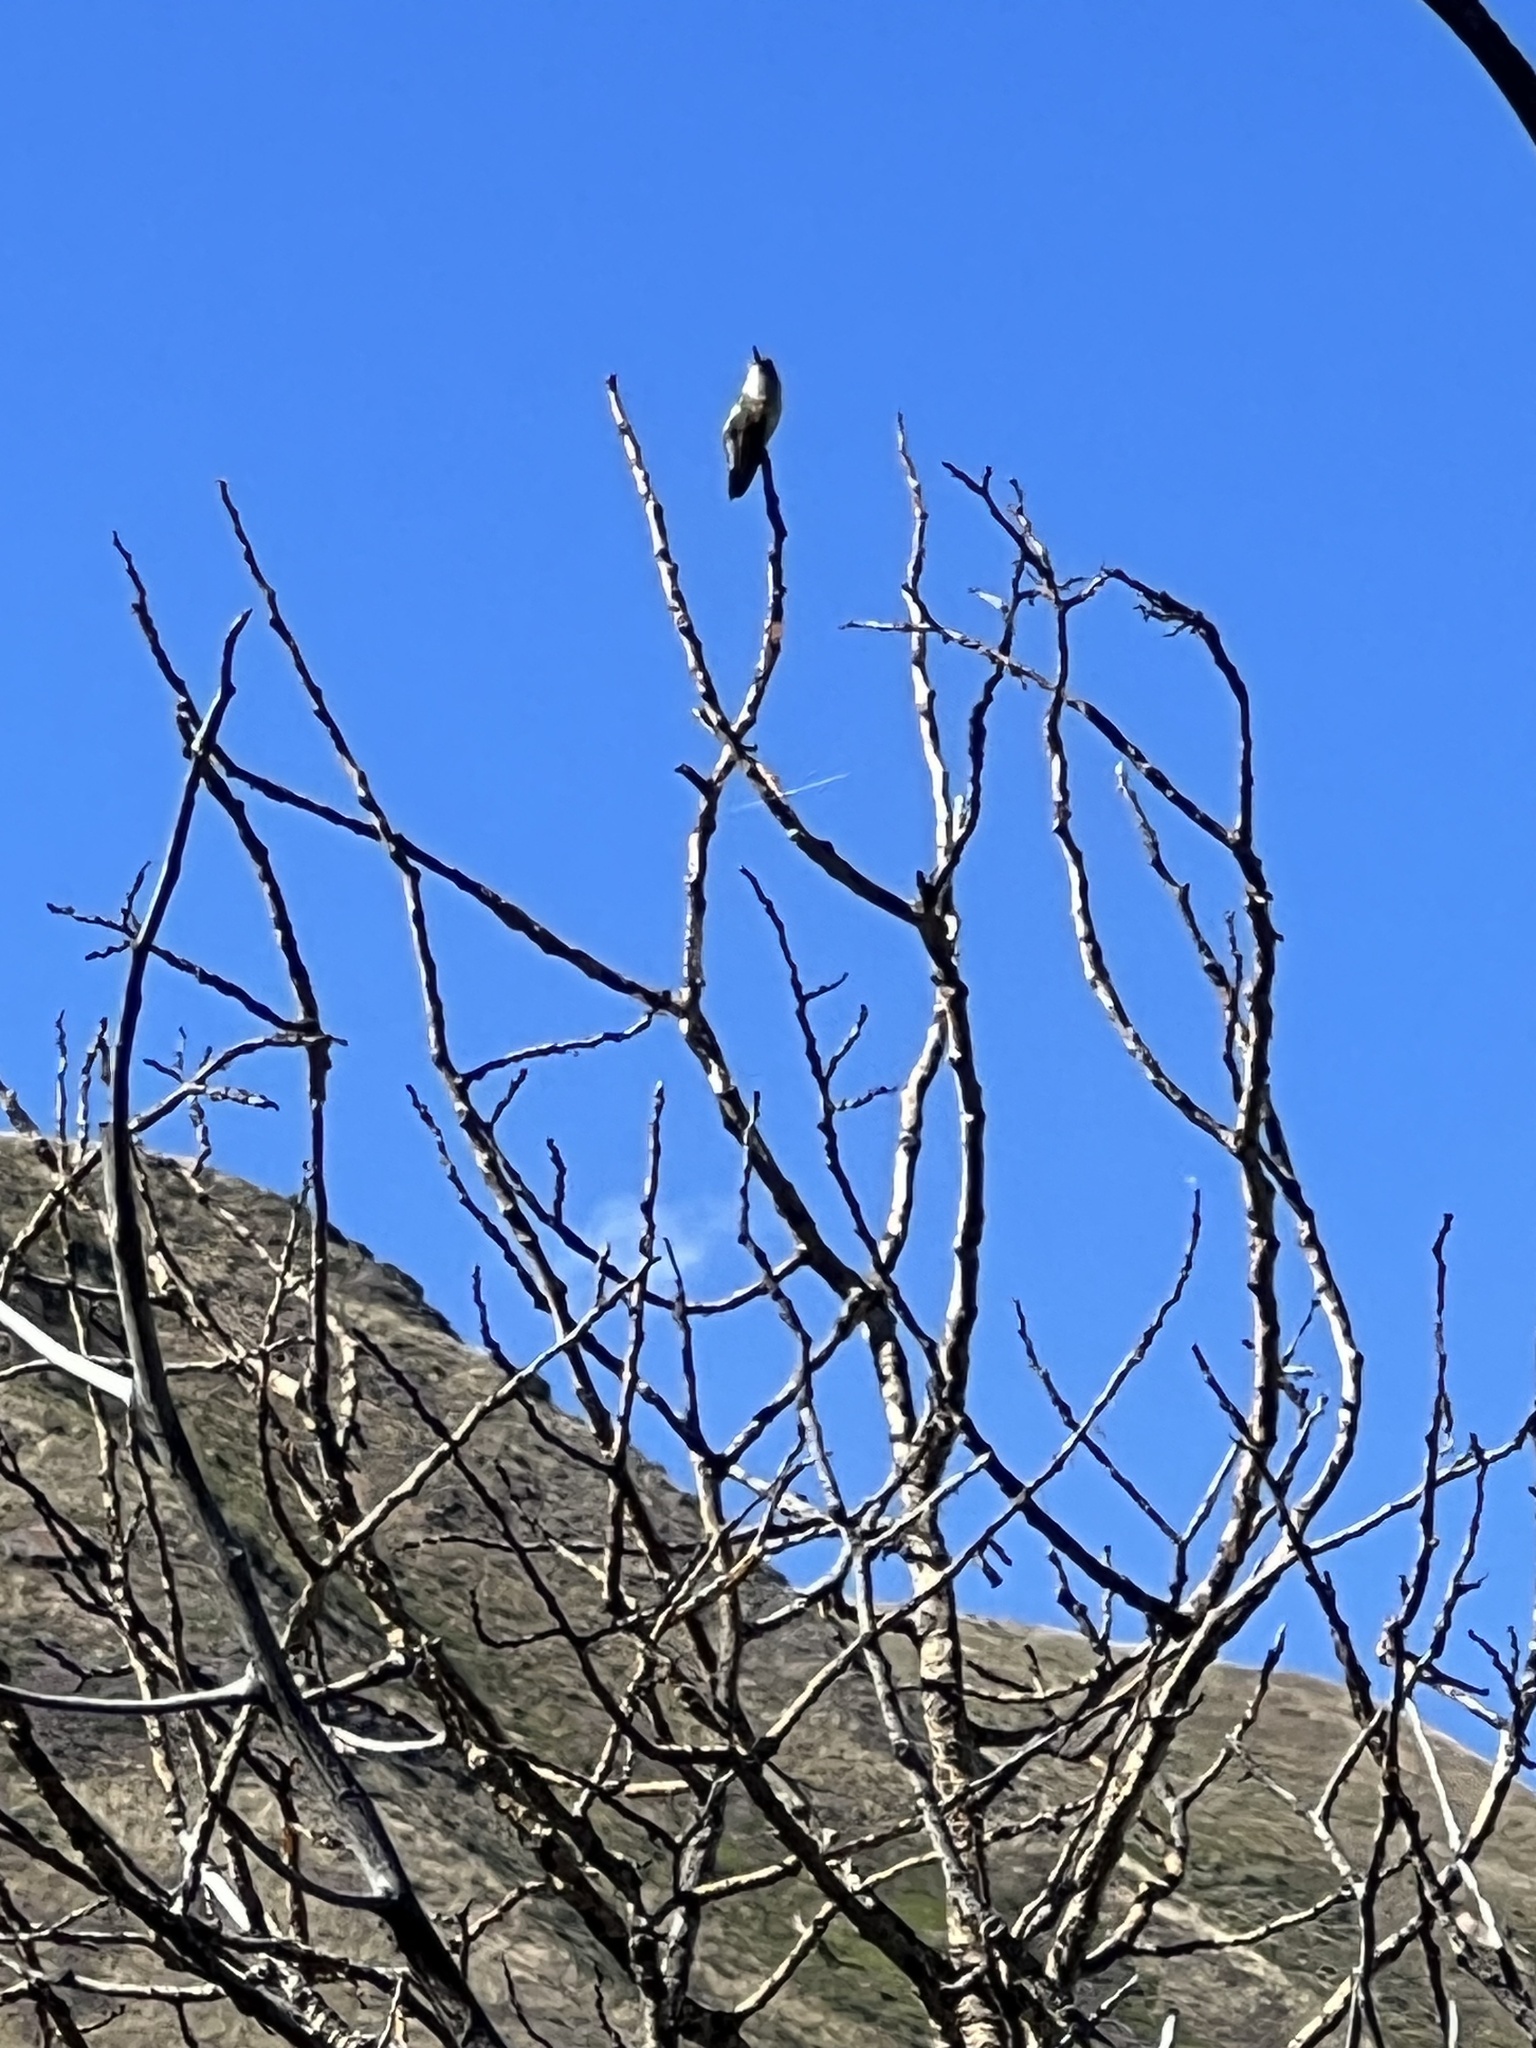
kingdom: Animalia
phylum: Chordata
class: Aves
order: Apodiformes
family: Trochilidae
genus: Selasphorus
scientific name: Selasphorus platycercus
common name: Broad-tailed hummingbird
